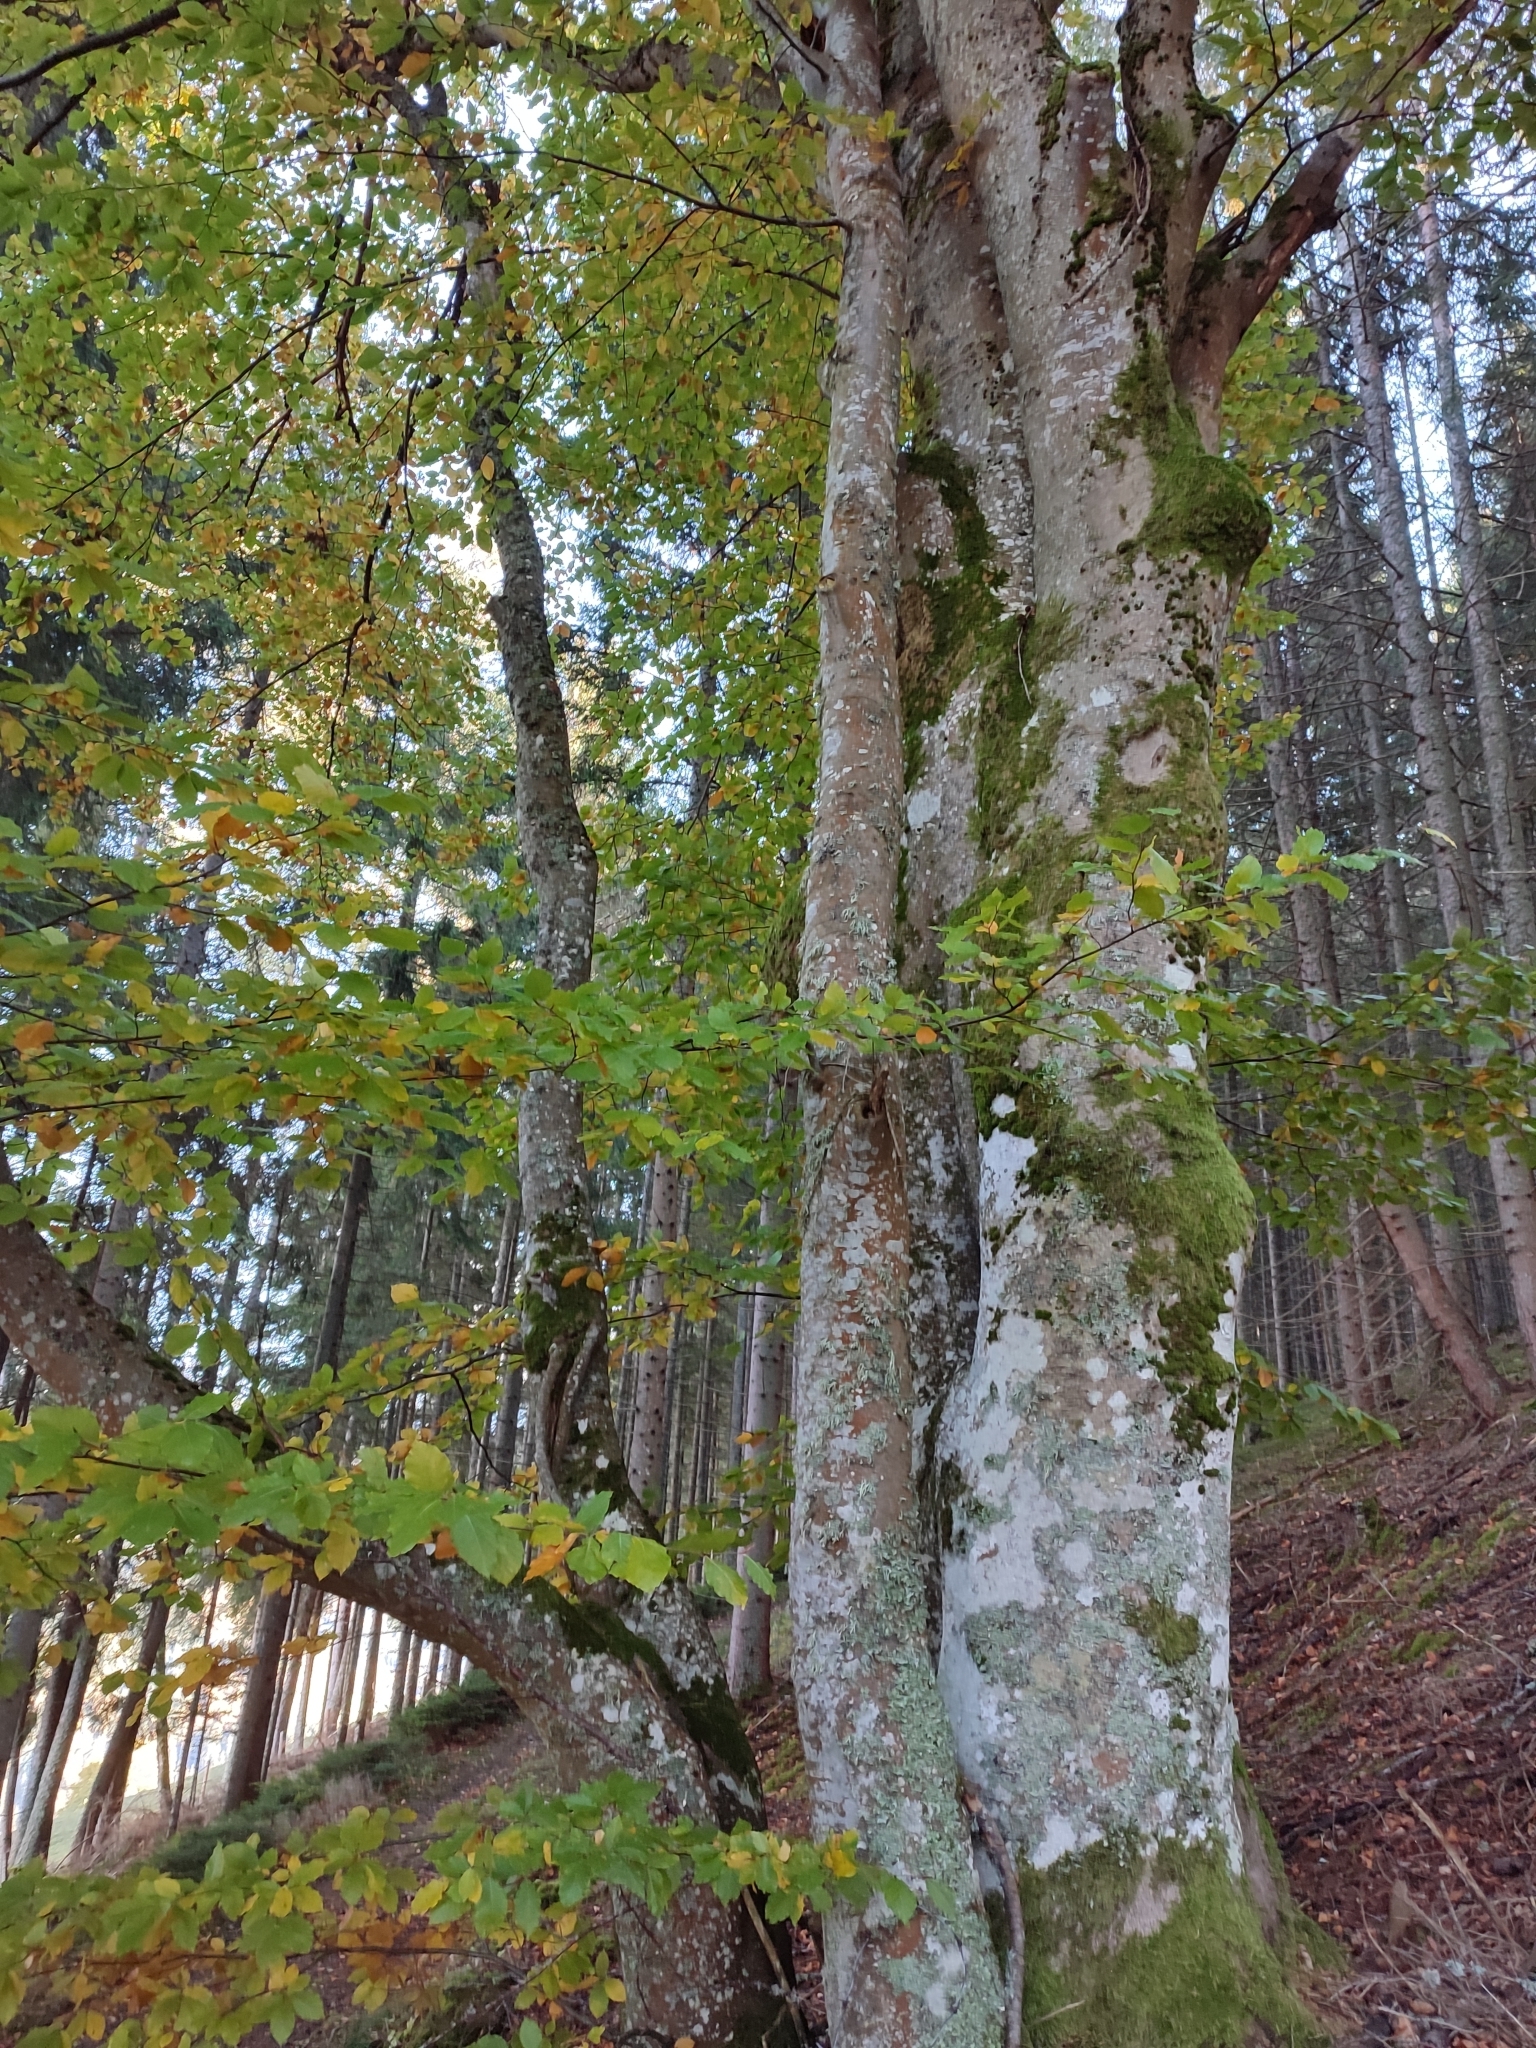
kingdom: Plantae
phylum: Tracheophyta
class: Magnoliopsida
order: Fagales
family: Fagaceae
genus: Fagus
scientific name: Fagus sylvatica
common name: Beech
